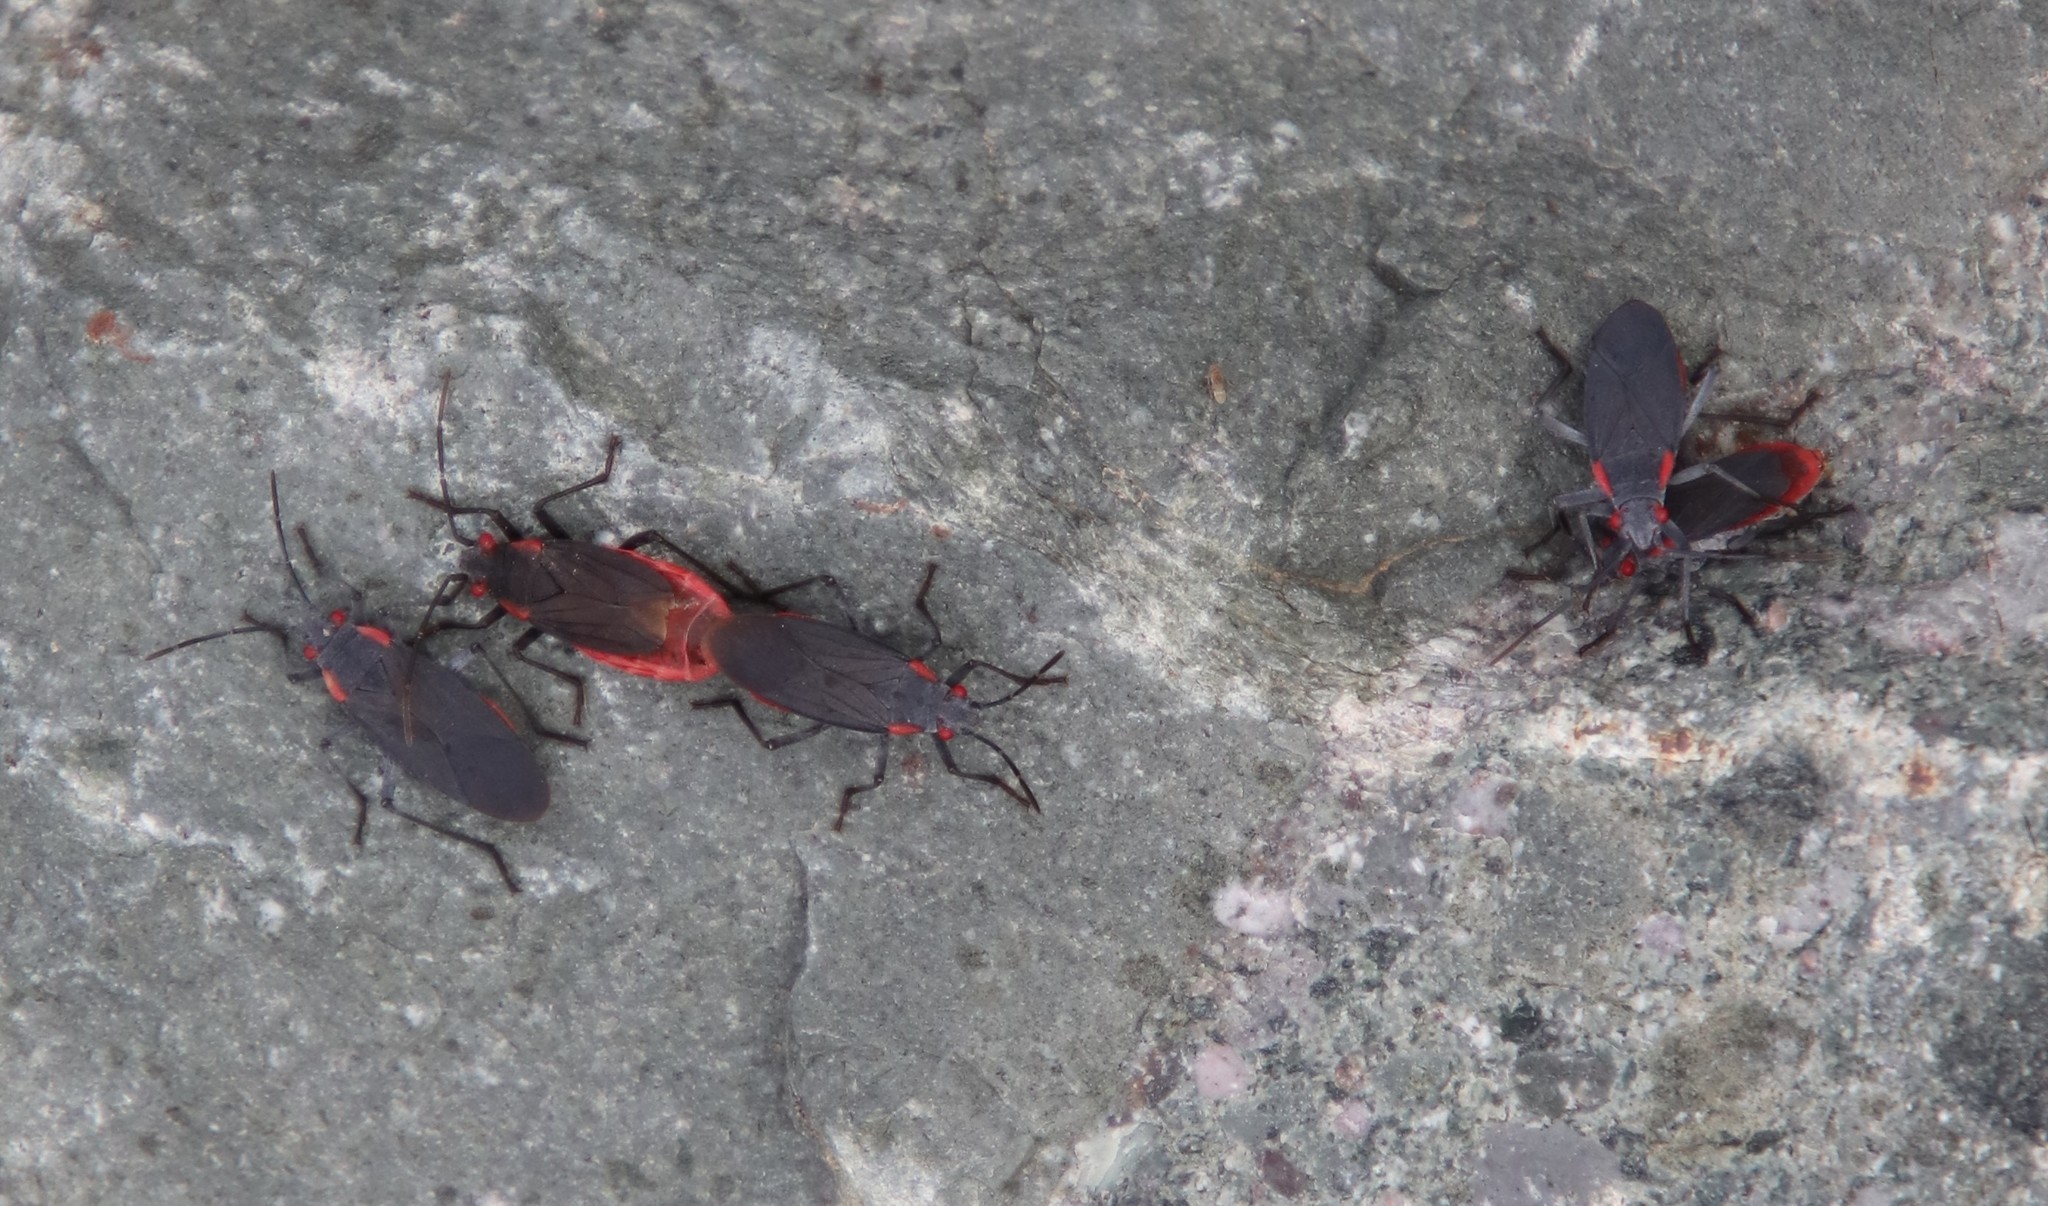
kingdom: Animalia
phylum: Arthropoda
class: Insecta
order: Hemiptera
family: Rhopalidae
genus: Jadera
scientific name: Jadera haematoloma
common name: Red-shouldered bug
